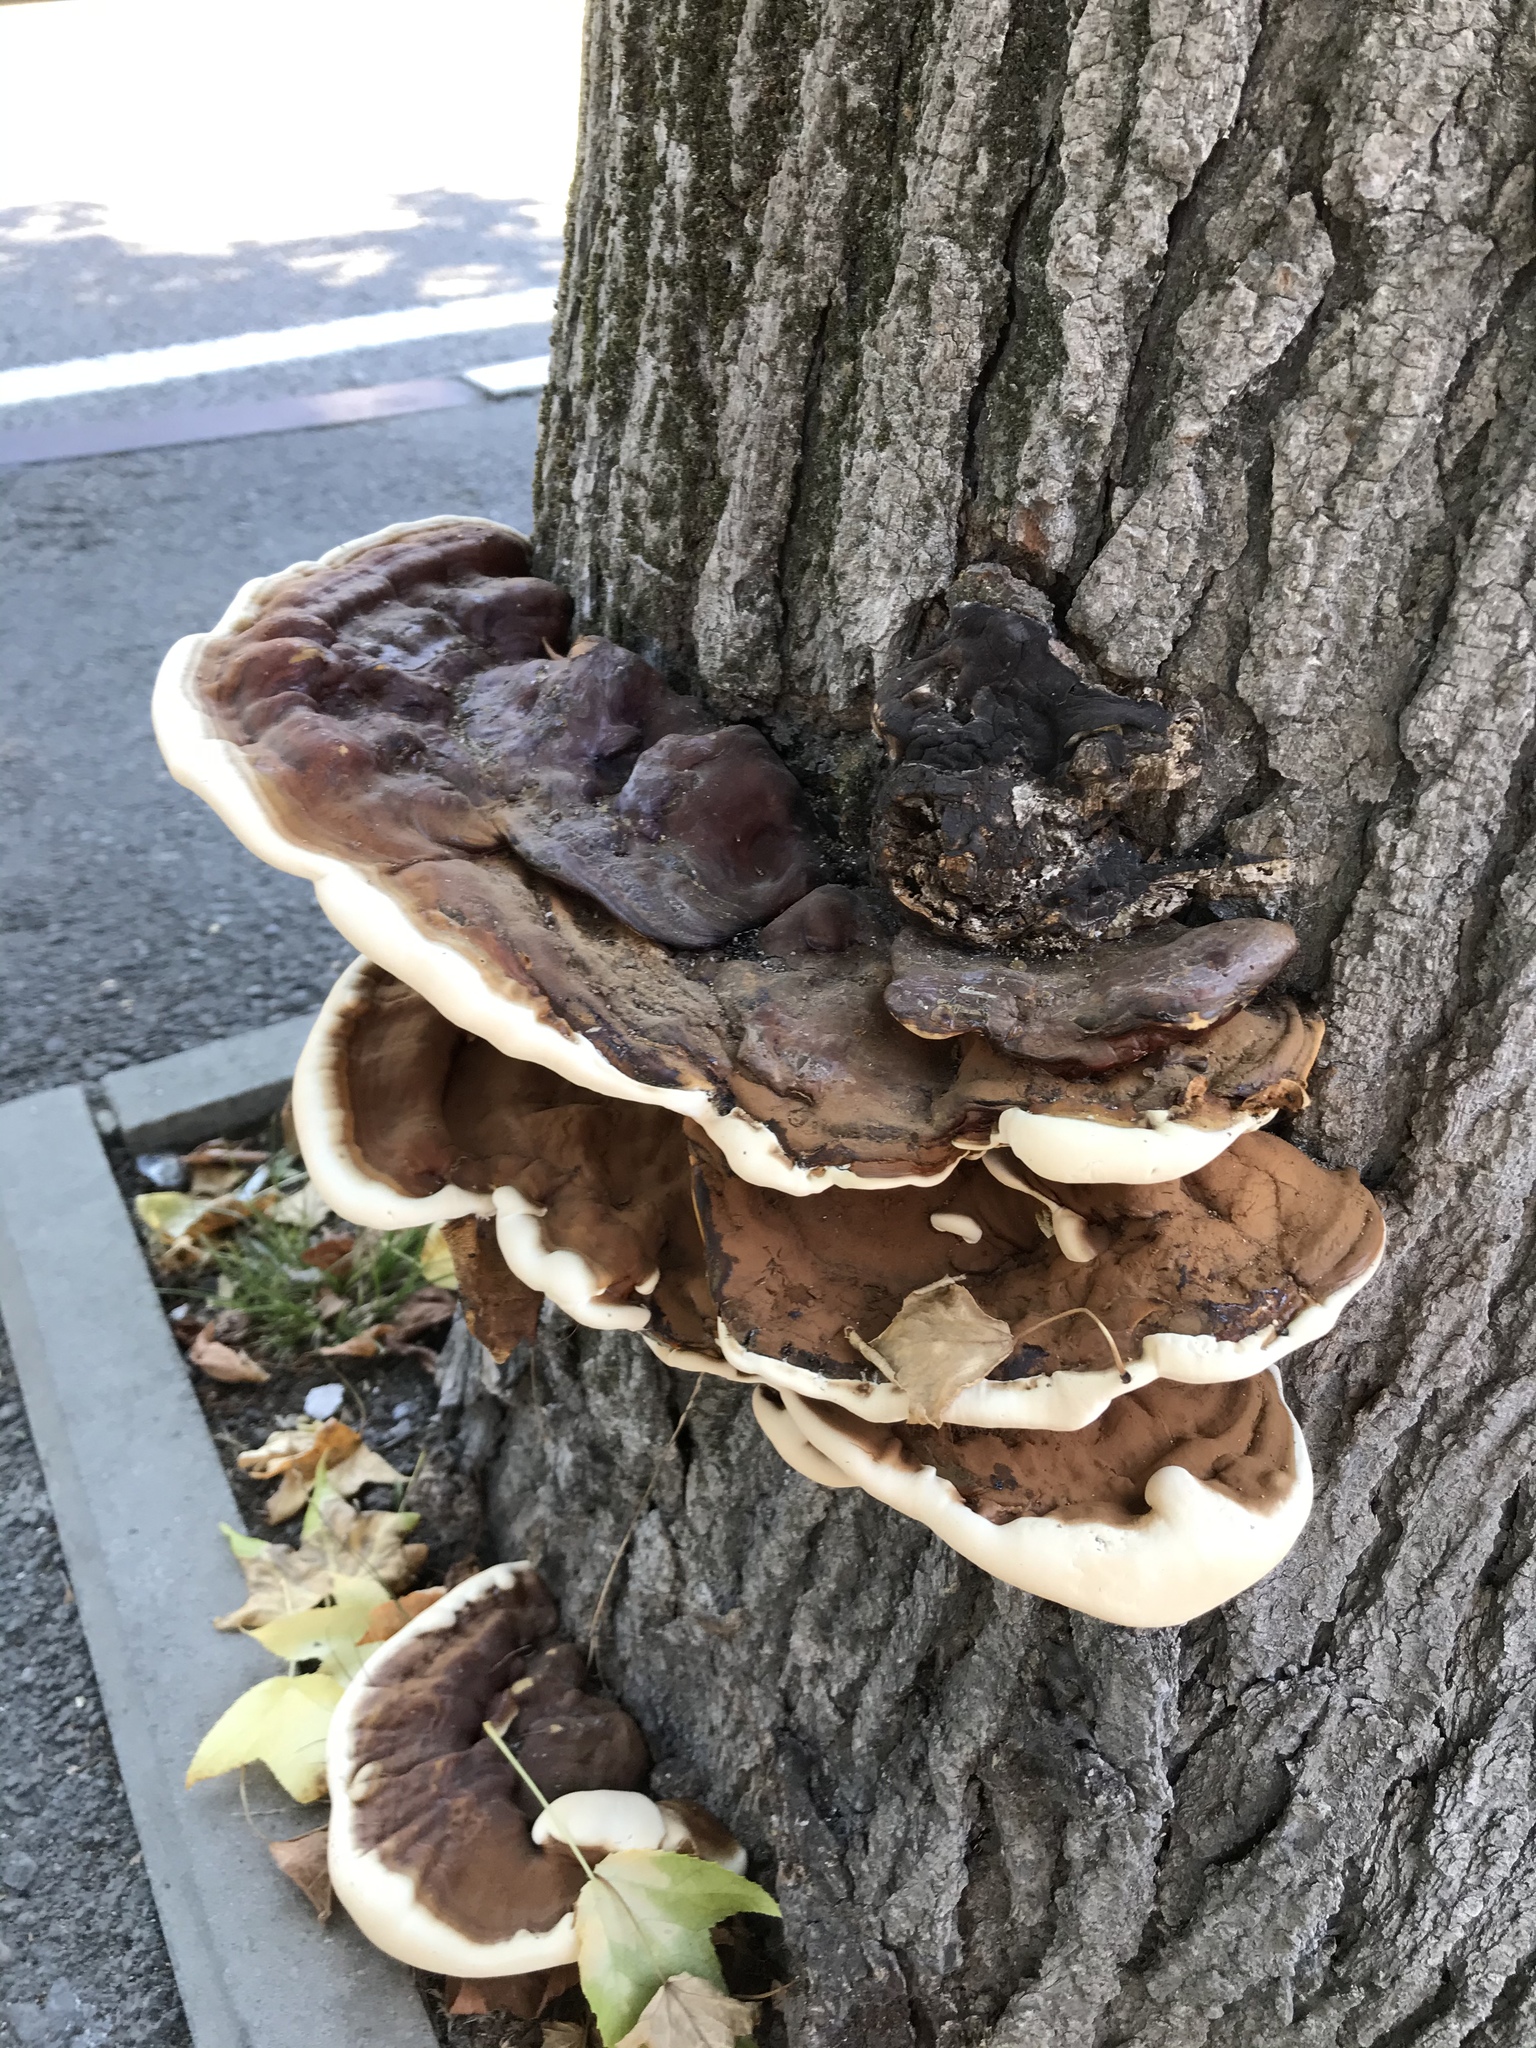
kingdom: Fungi
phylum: Basidiomycota
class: Agaricomycetes
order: Polyporales
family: Polyporaceae
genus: Ganoderma
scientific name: Ganoderma applanatum
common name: Artist's bracket
